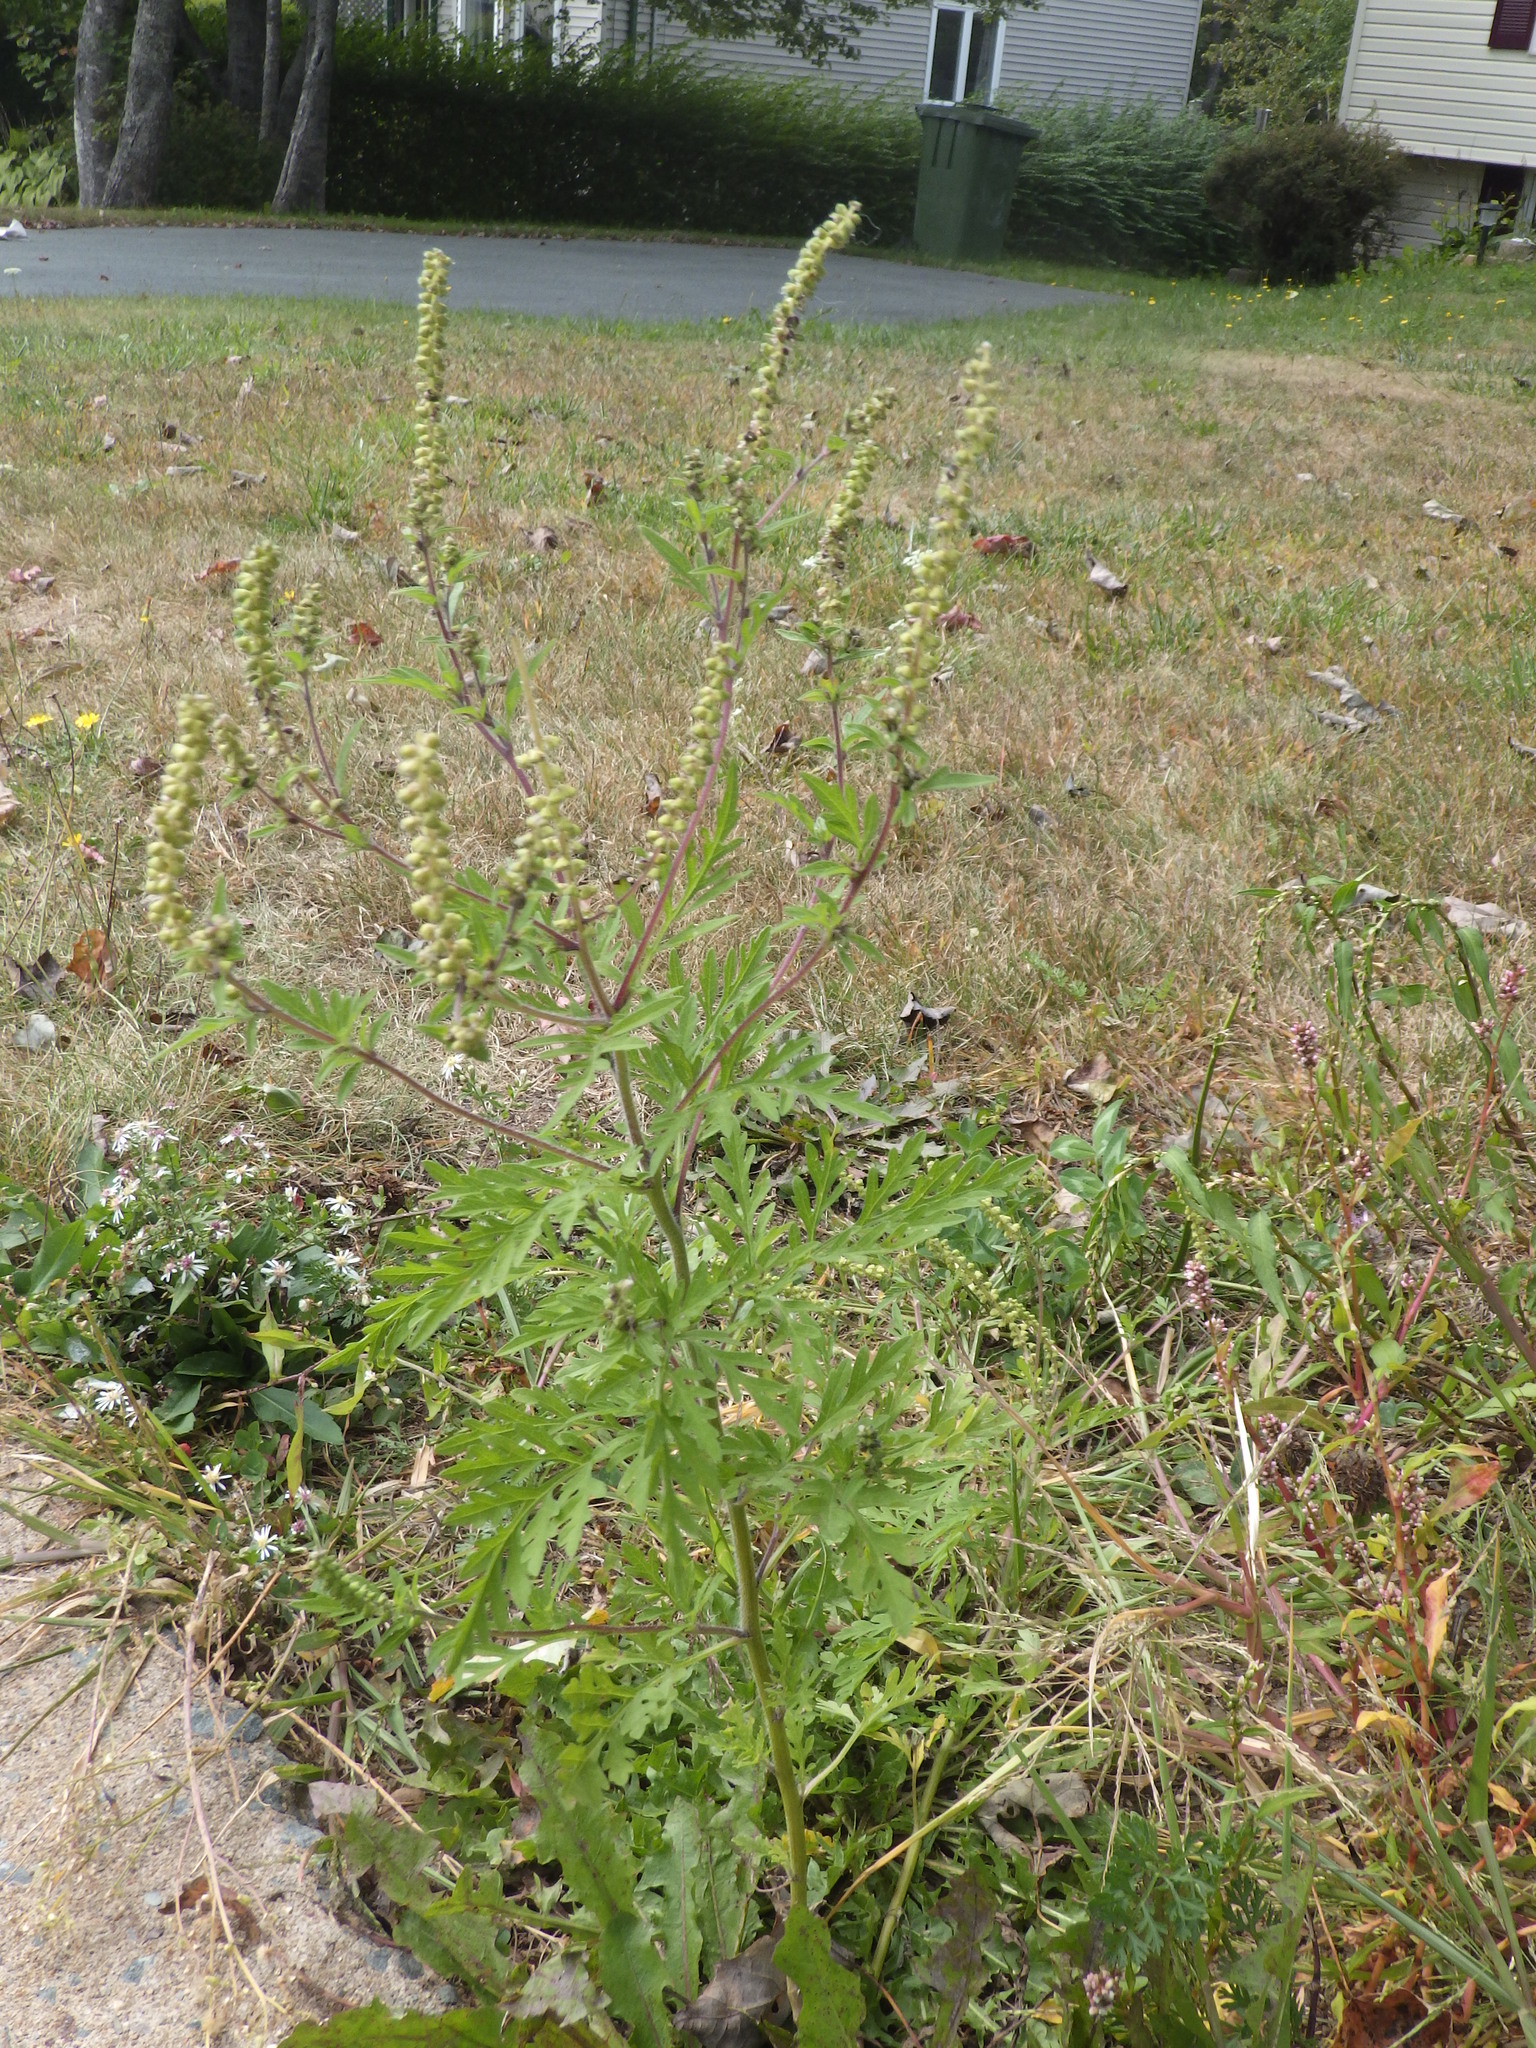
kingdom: Plantae
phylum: Tracheophyta
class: Magnoliopsida
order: Asterales
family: Asteraceae
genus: Ambrosia
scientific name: Ambrosia artemisiifolia
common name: Annual ragweed
